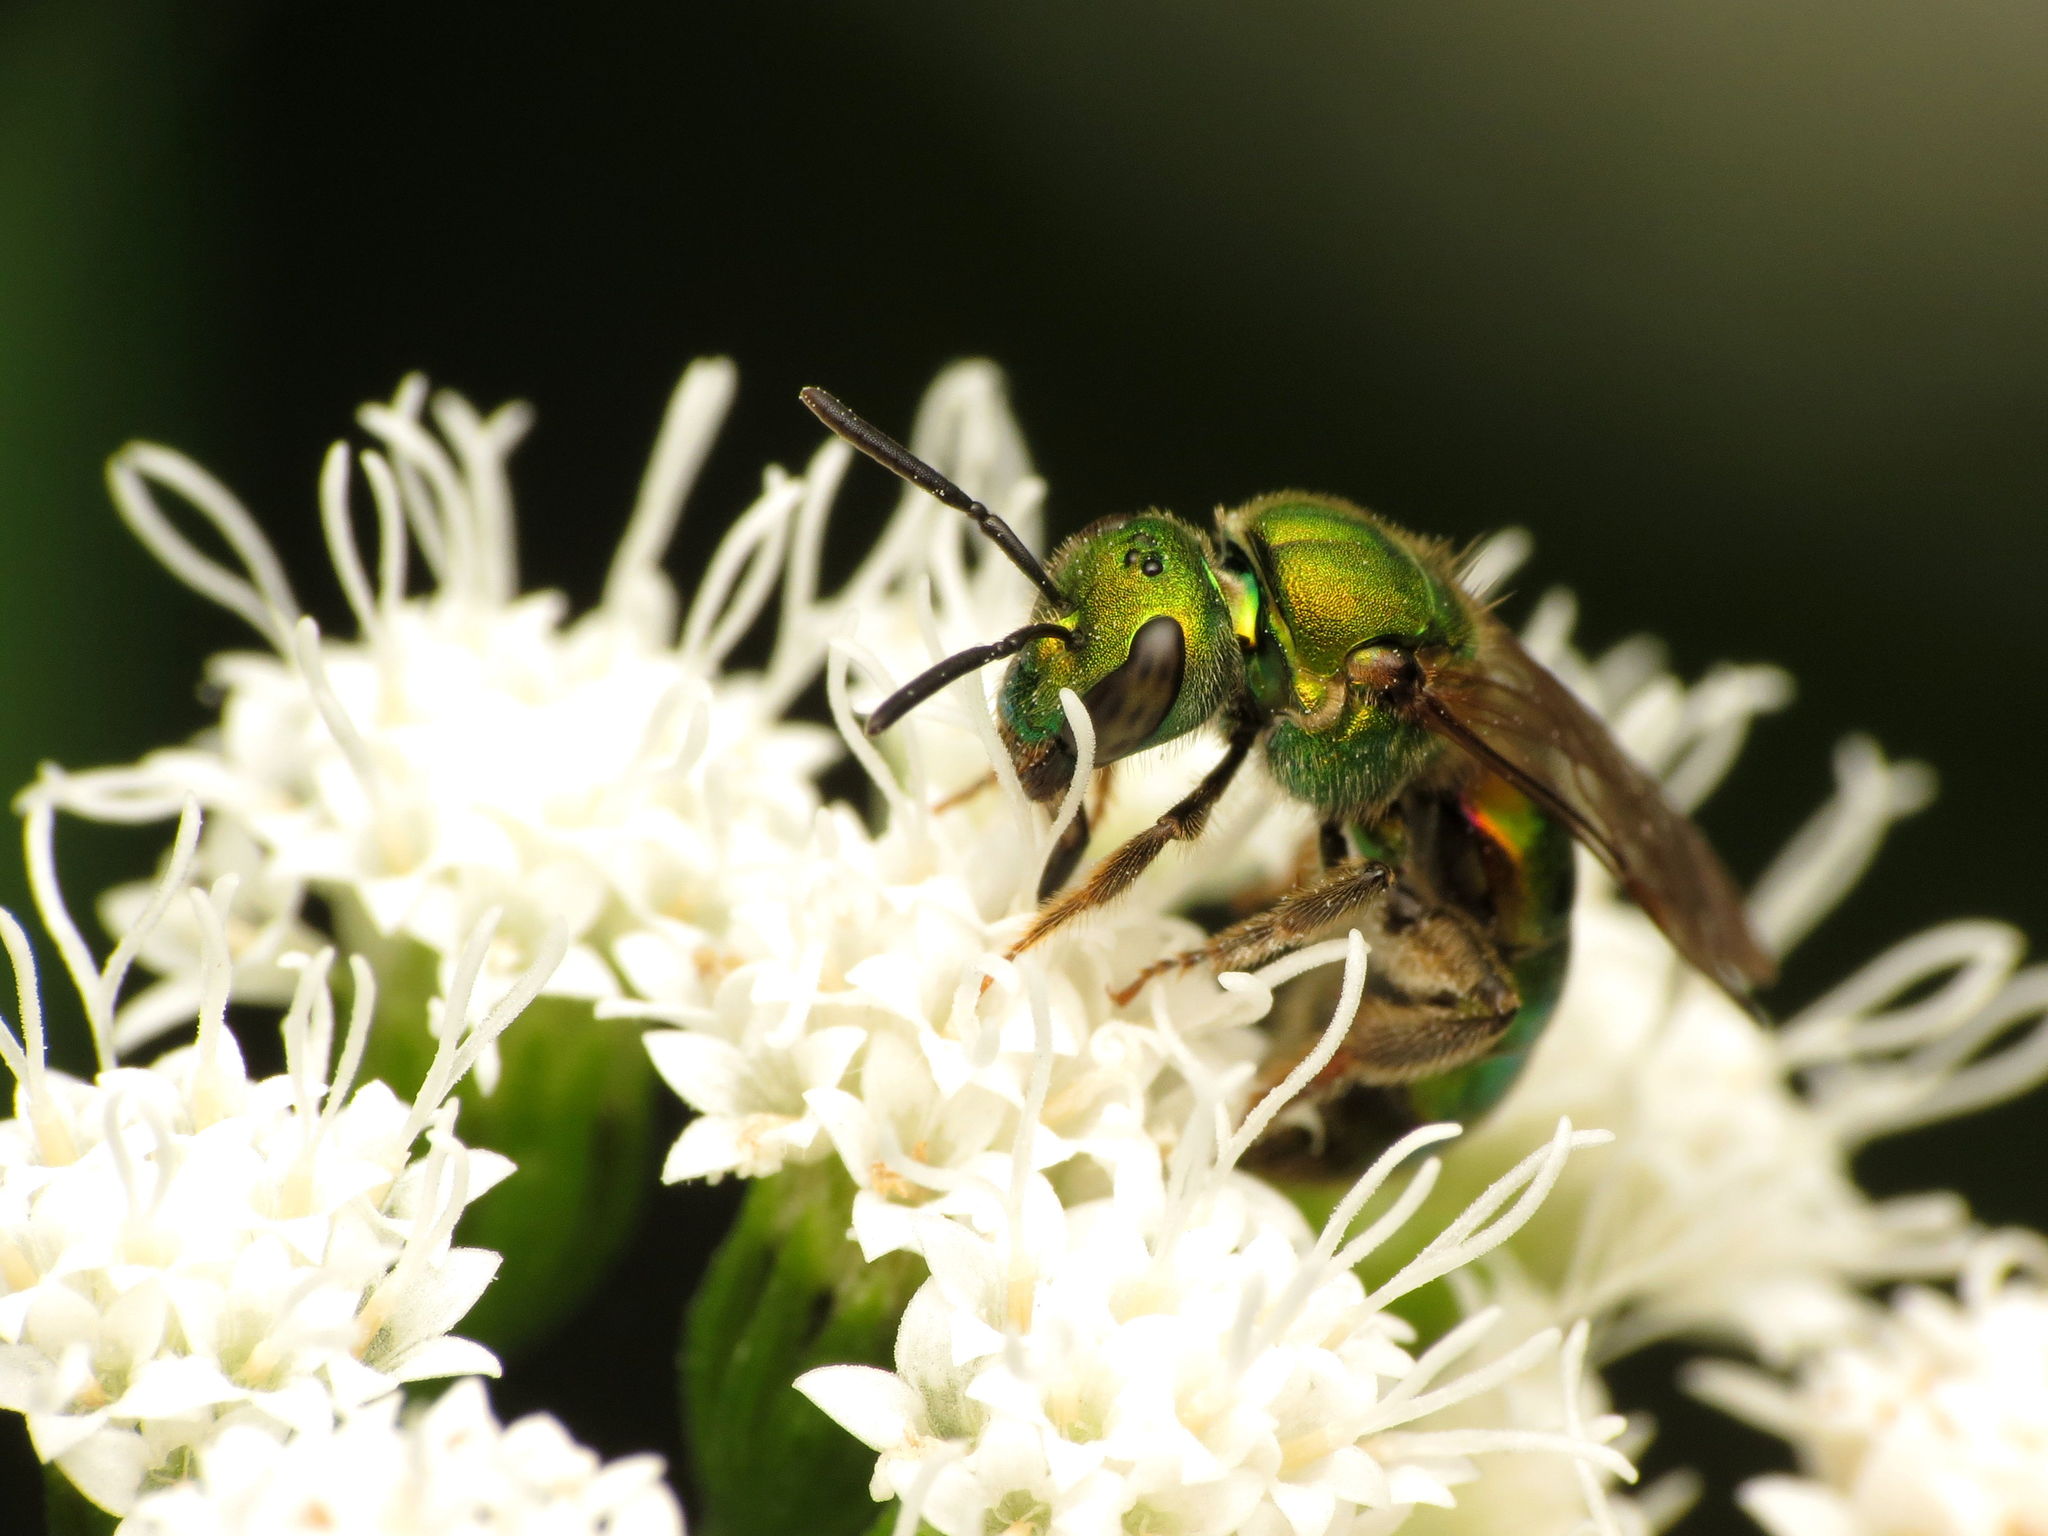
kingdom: Animalia
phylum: Arthropoda
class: Insecta
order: Hymenoptera
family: Halictidae
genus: Augochlora
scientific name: Augochlora pura
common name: Pure green sweat bee
